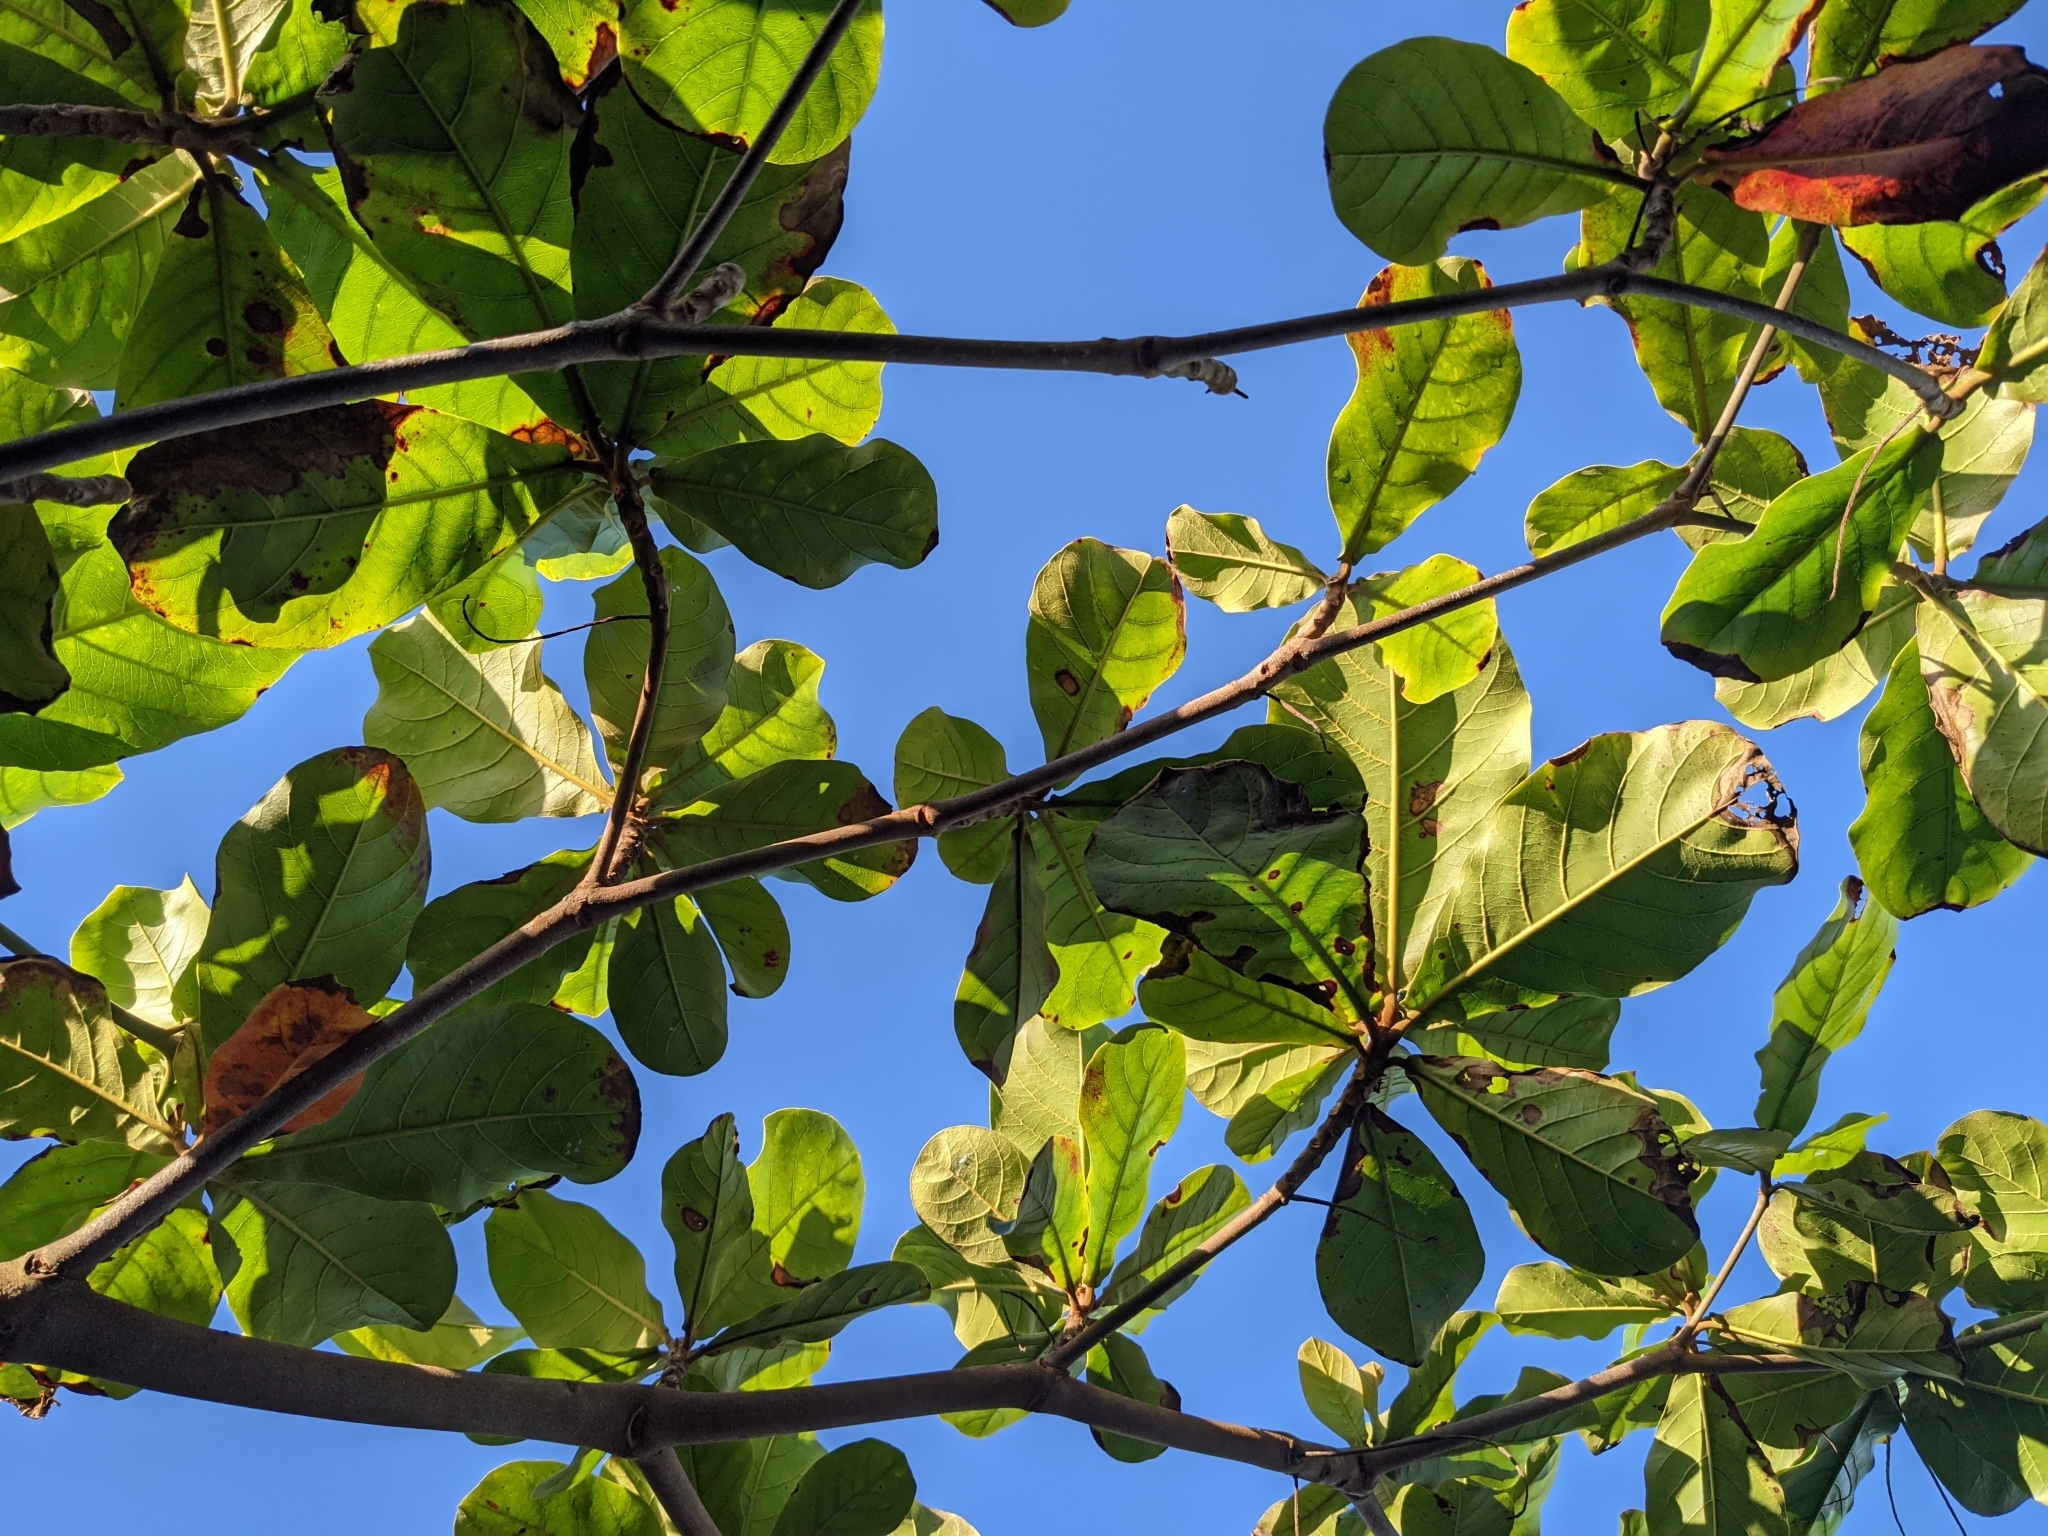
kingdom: Plantae
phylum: Tracheophyta
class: Magnoliopsida
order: Myrtales
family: Combretaceae
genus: Terminalia
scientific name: Terminalia catappa
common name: Tropical almond
